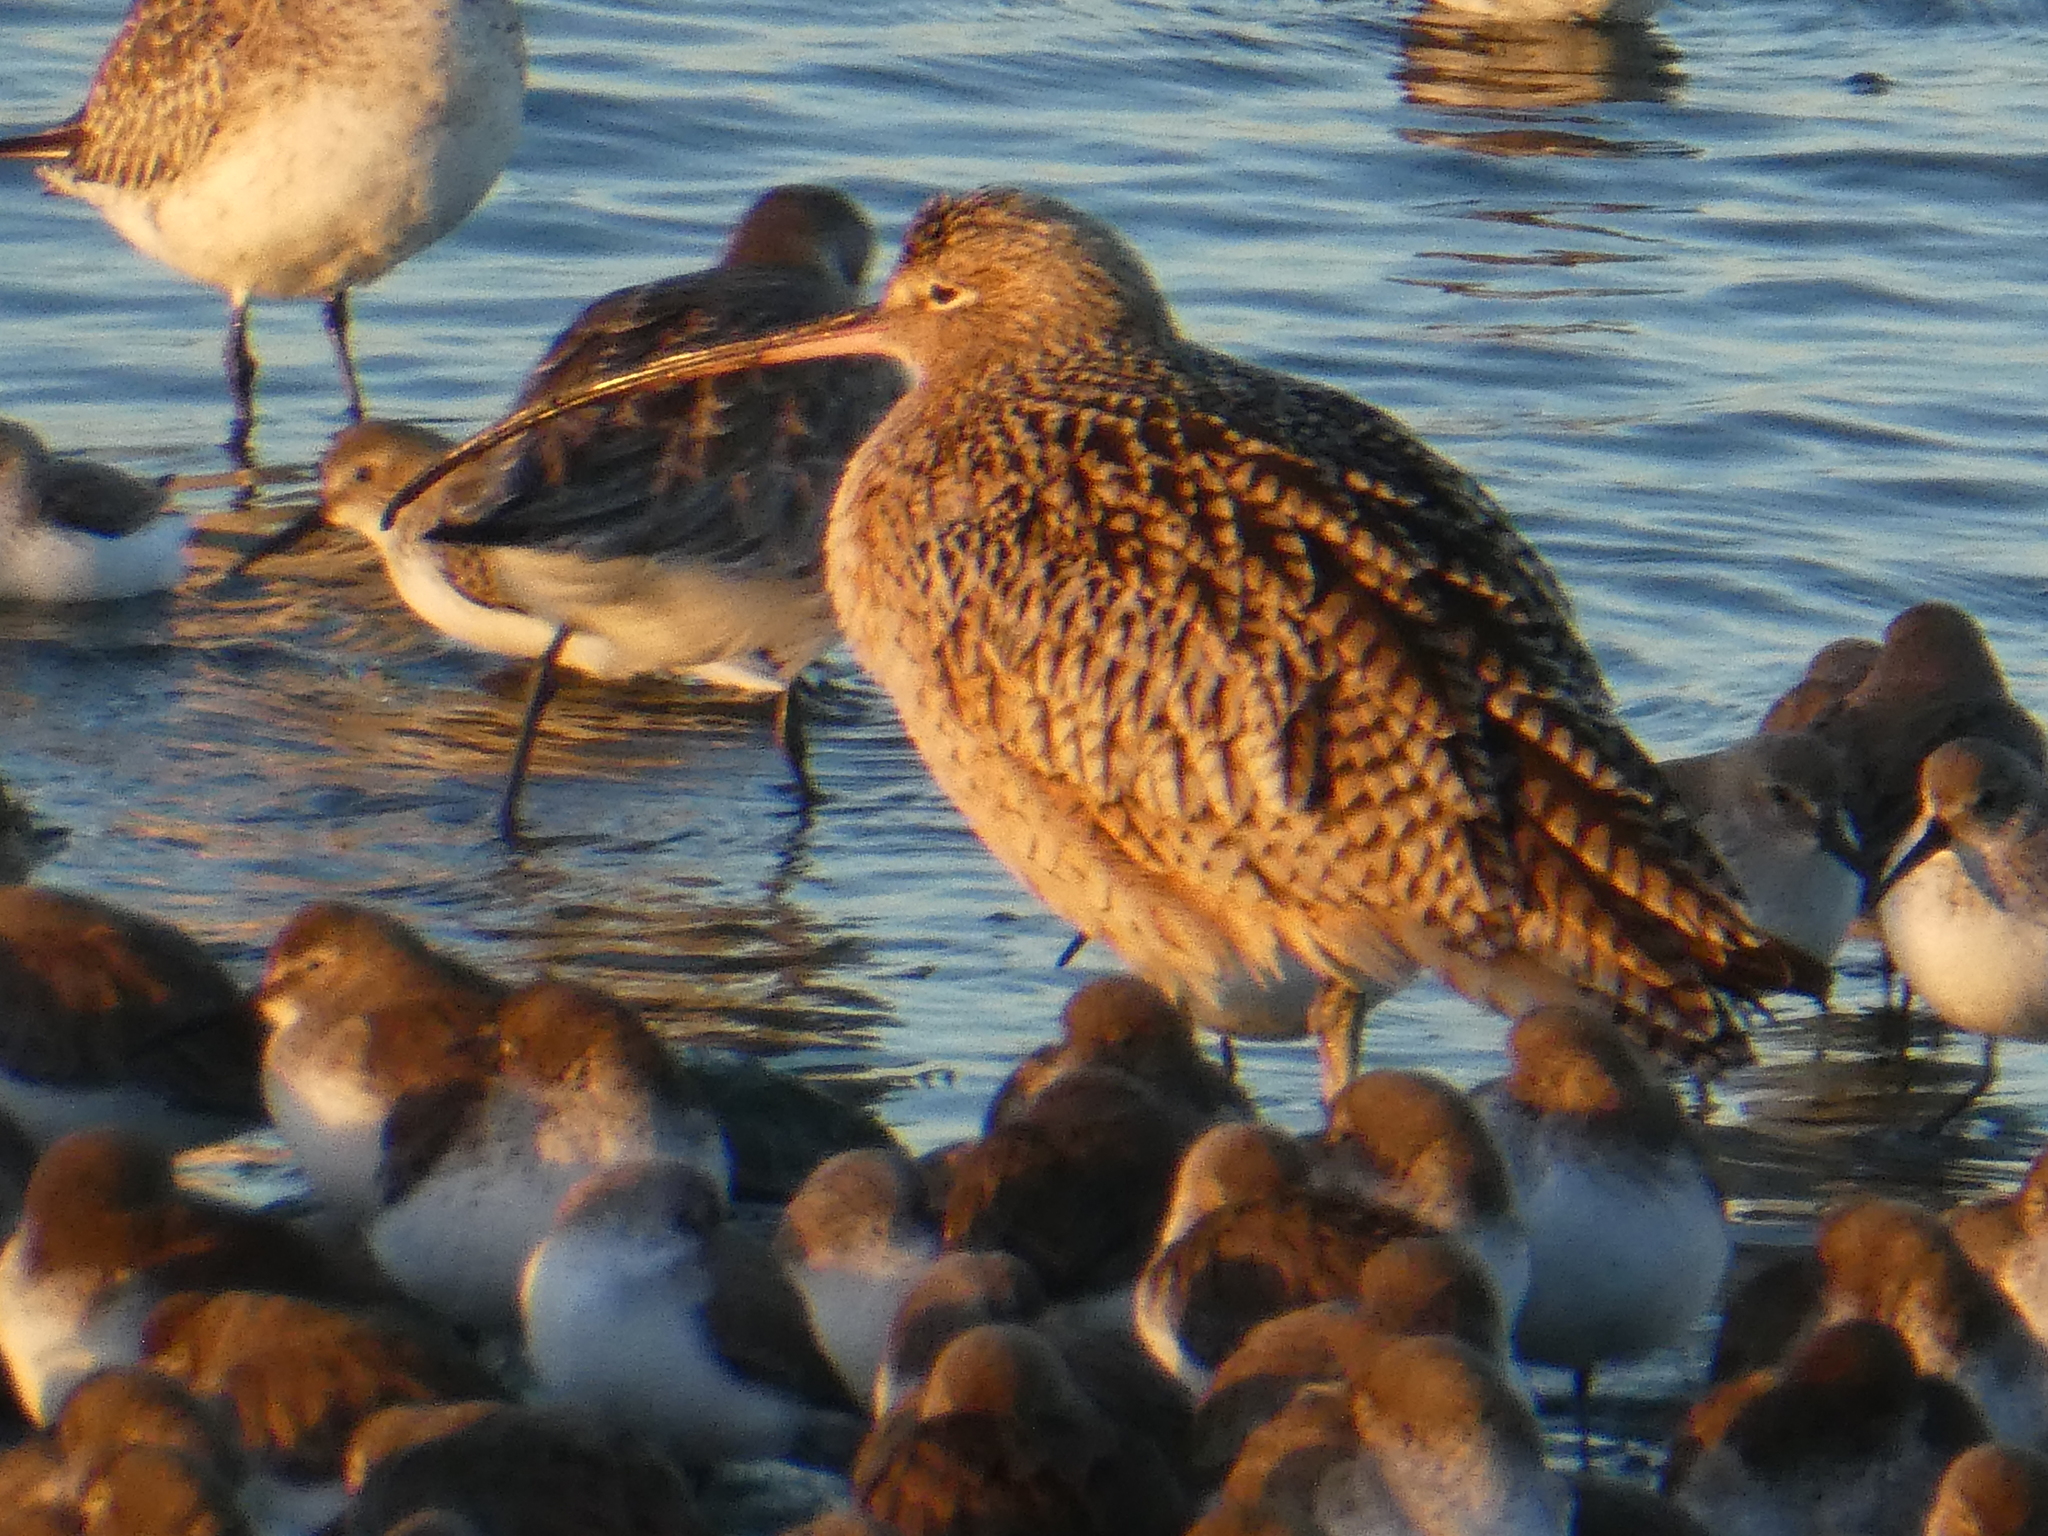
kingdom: Animalia
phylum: Chordata
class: Aves
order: Charadriiformes
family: Scolopacidae
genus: Numenius
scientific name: Numenius americanus
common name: Long-billed curlew
